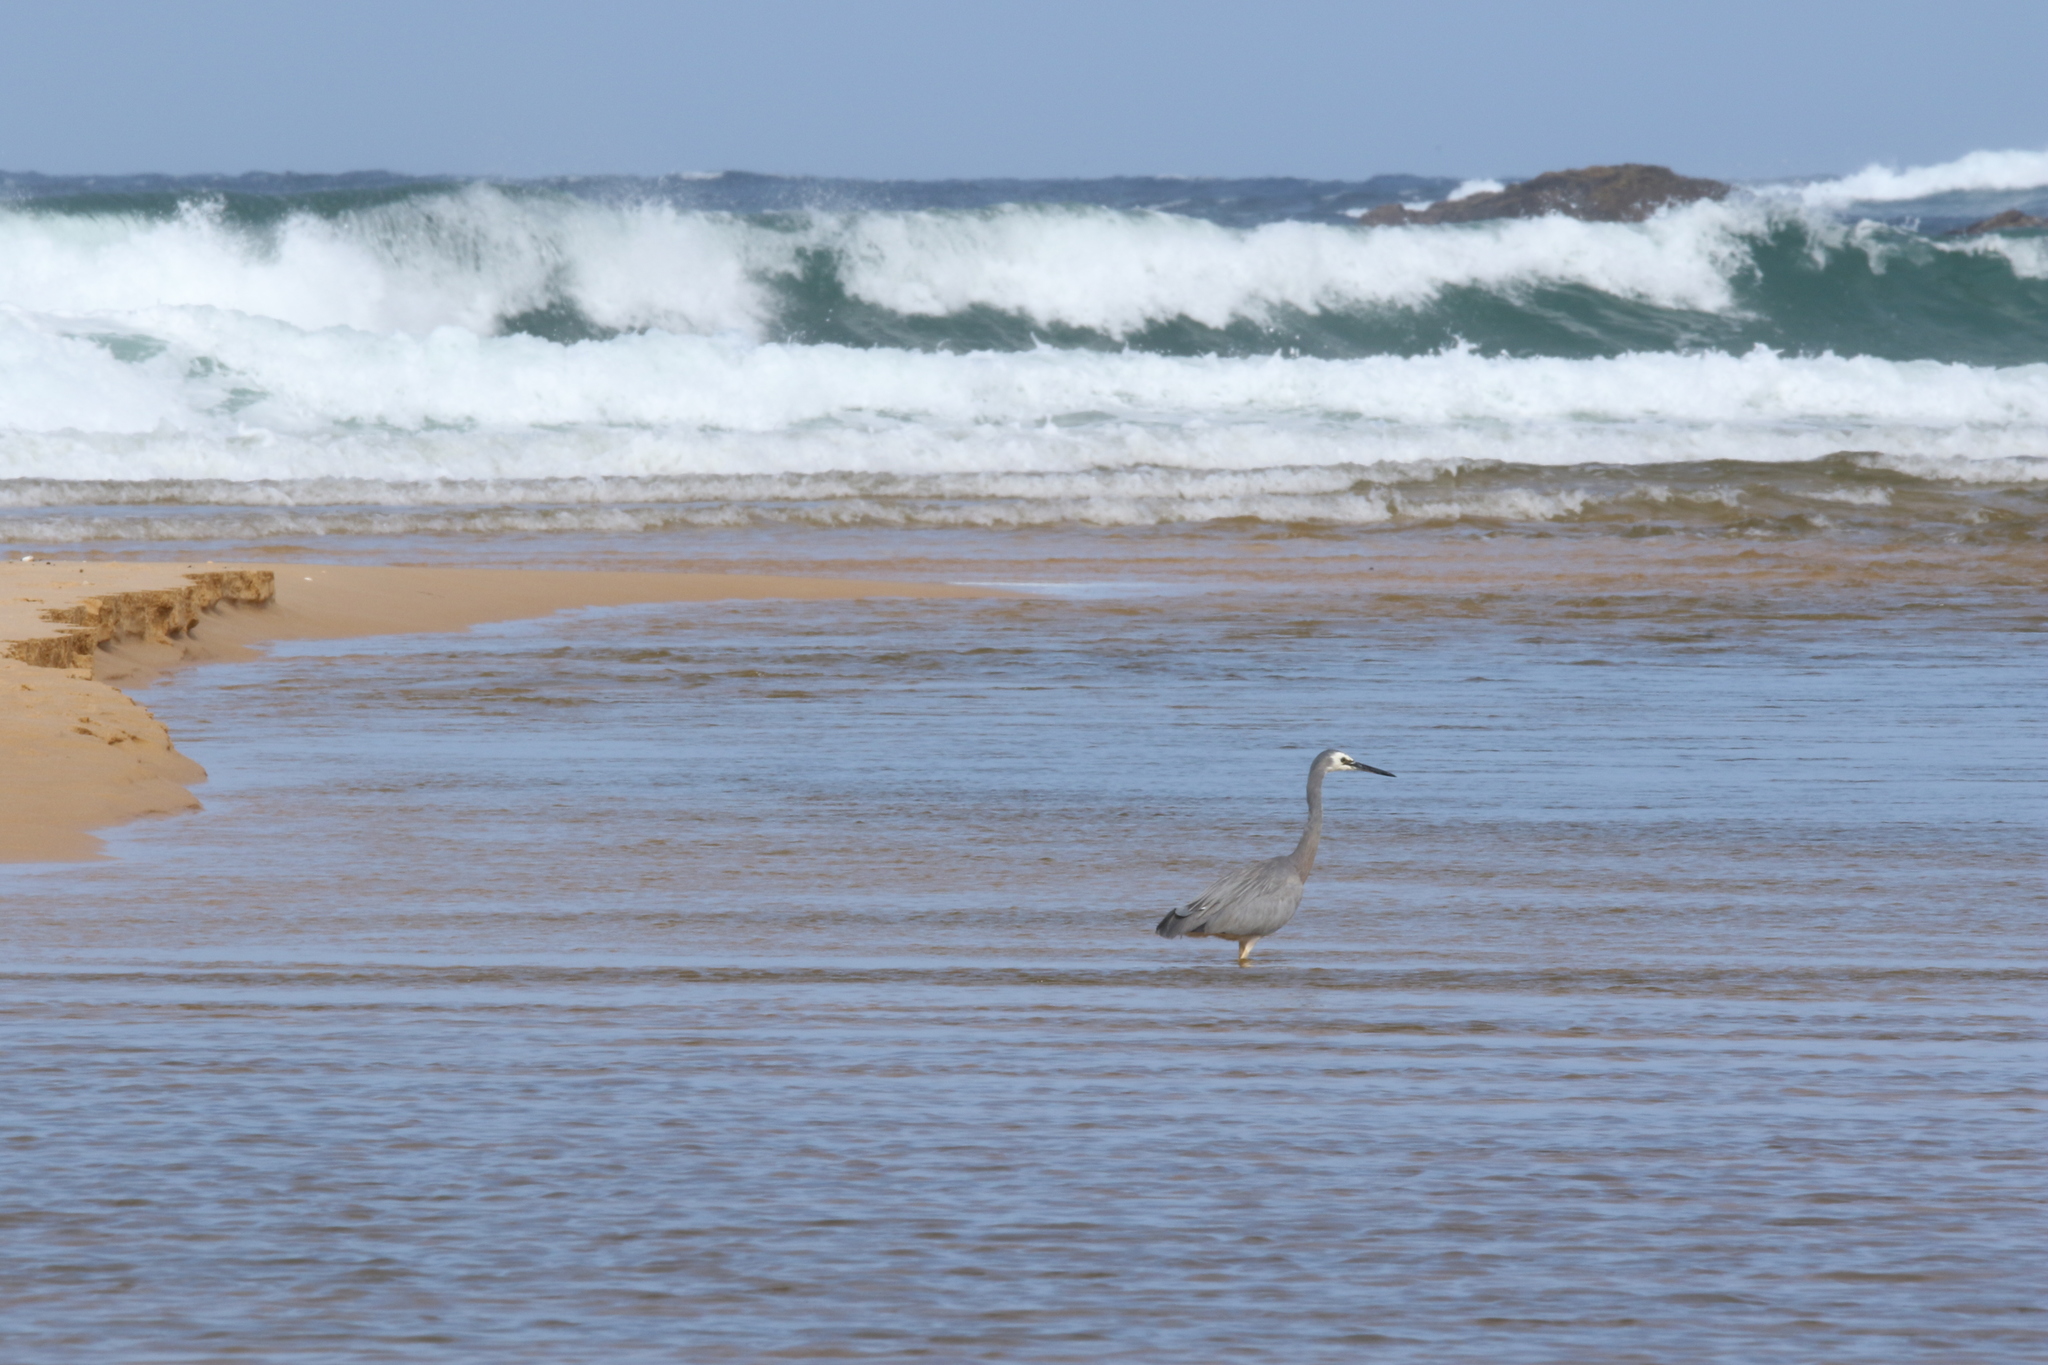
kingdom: Animalia
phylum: Chordata
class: Aves
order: Pelecaniformes
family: Ardeidae
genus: Egretta
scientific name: Egretta novaehollandiae
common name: White-faced heron
